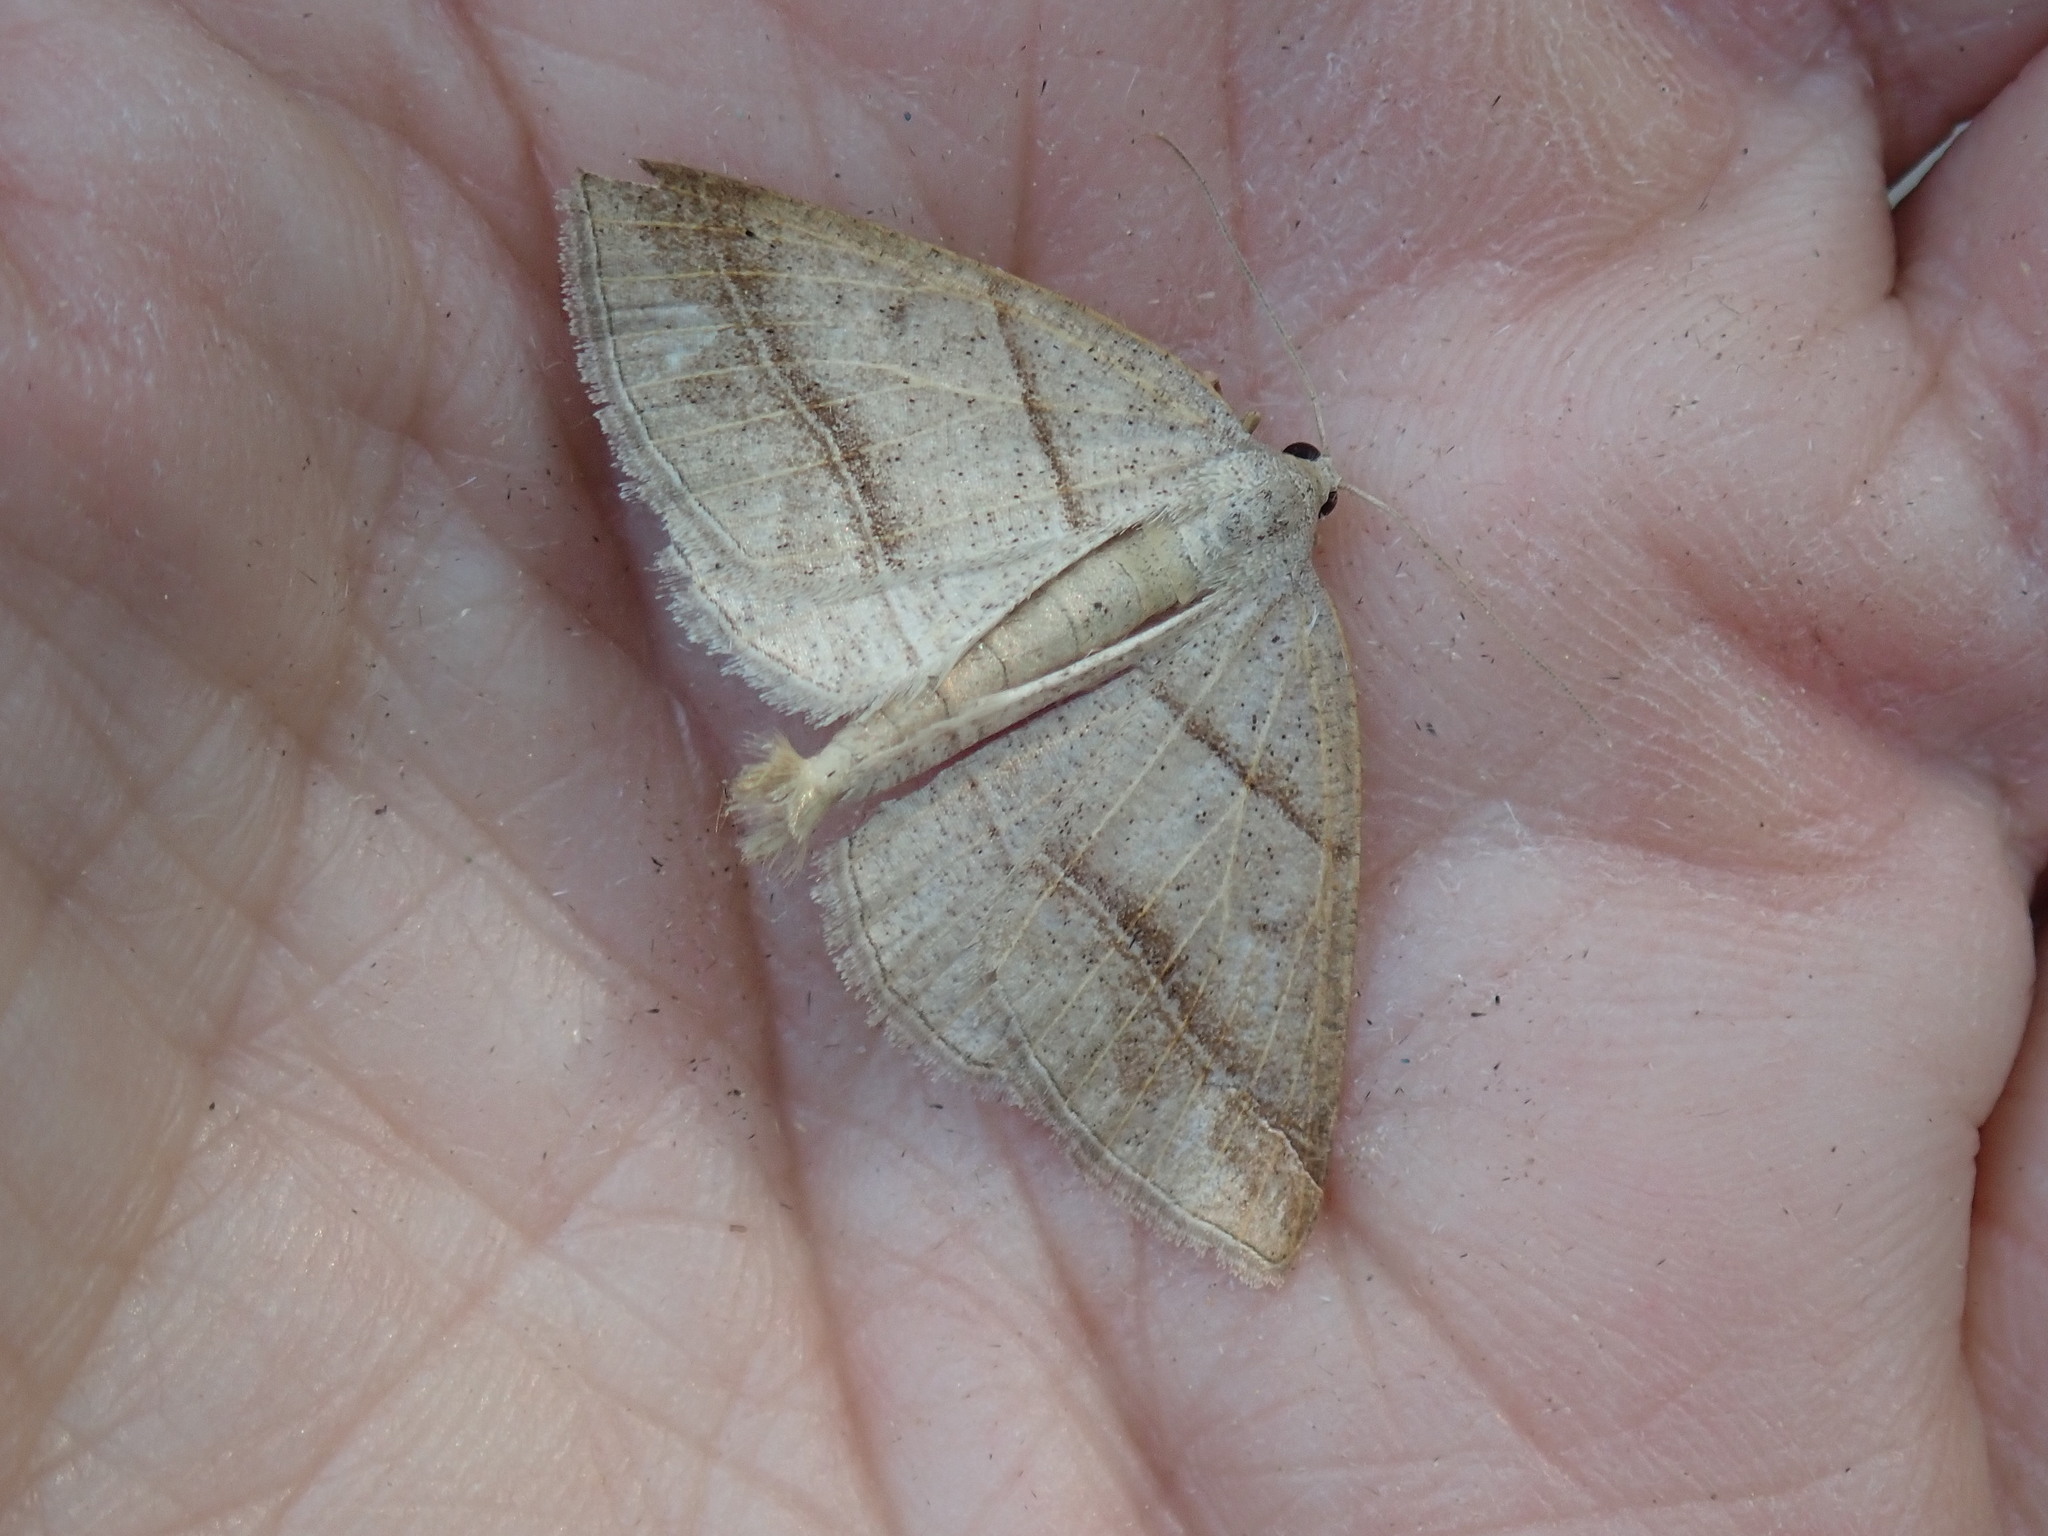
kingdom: Animalia
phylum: Arthropoda
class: Insecta
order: Lepidoptera
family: Pterophoridae
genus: Pterophorus
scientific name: Pterophorus Petrophora subaequaria
